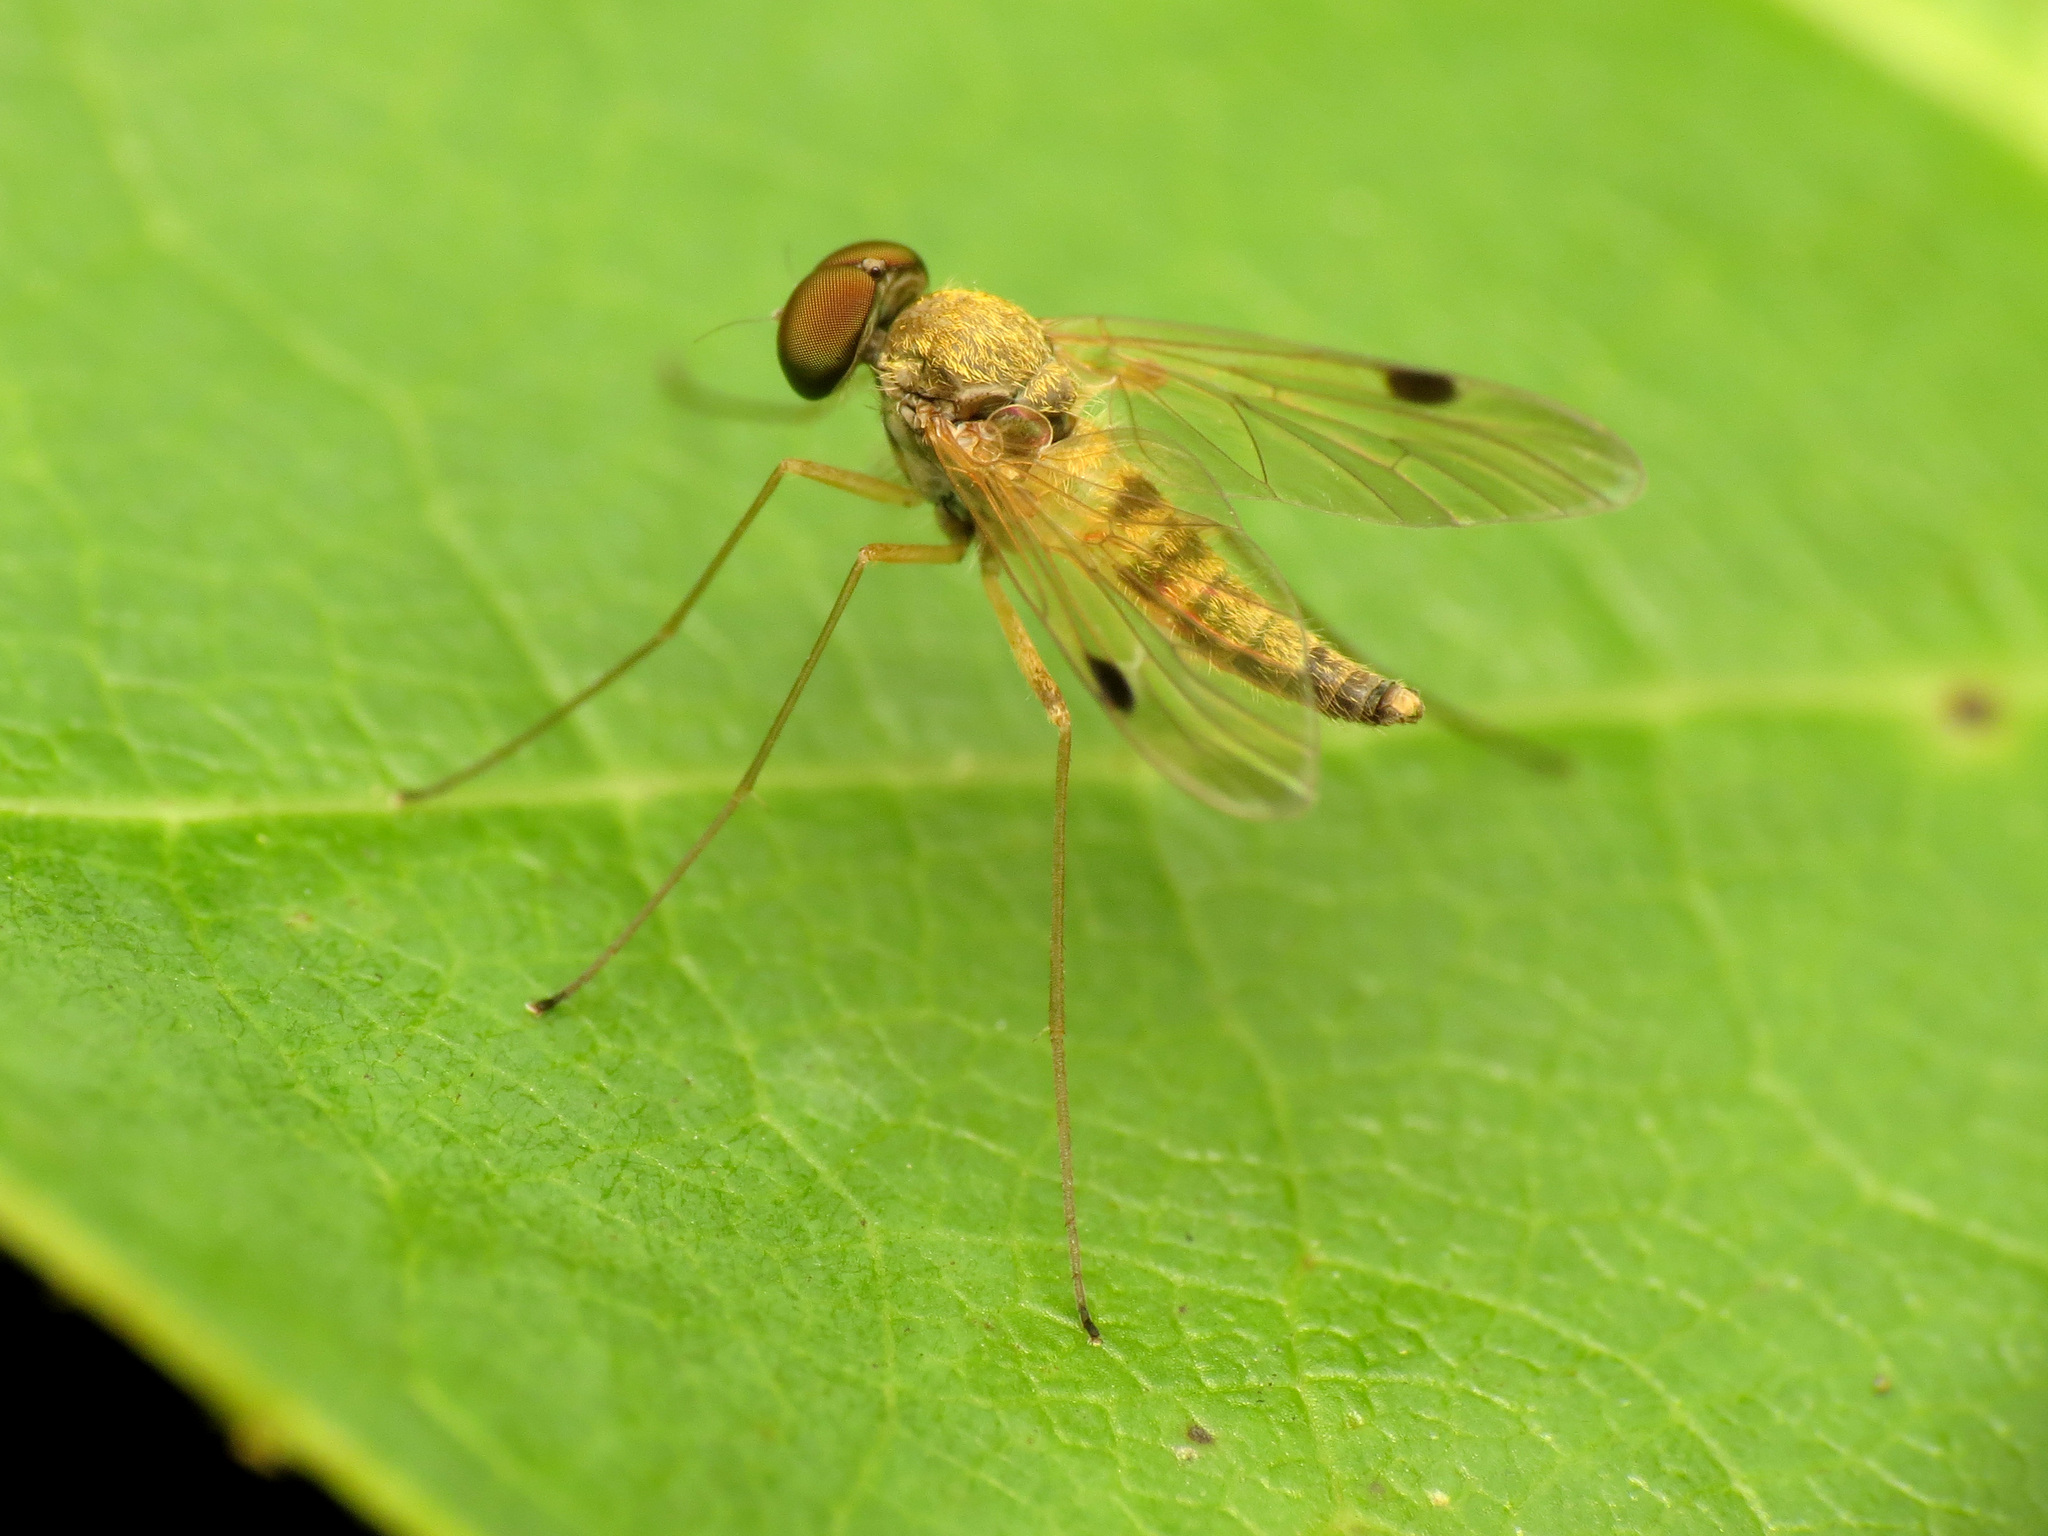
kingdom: Animalia
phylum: Arthropoda
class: Insecta
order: Diptera
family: Rhagionidae
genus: Chrysopilus
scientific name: Chrysopilus modestus
